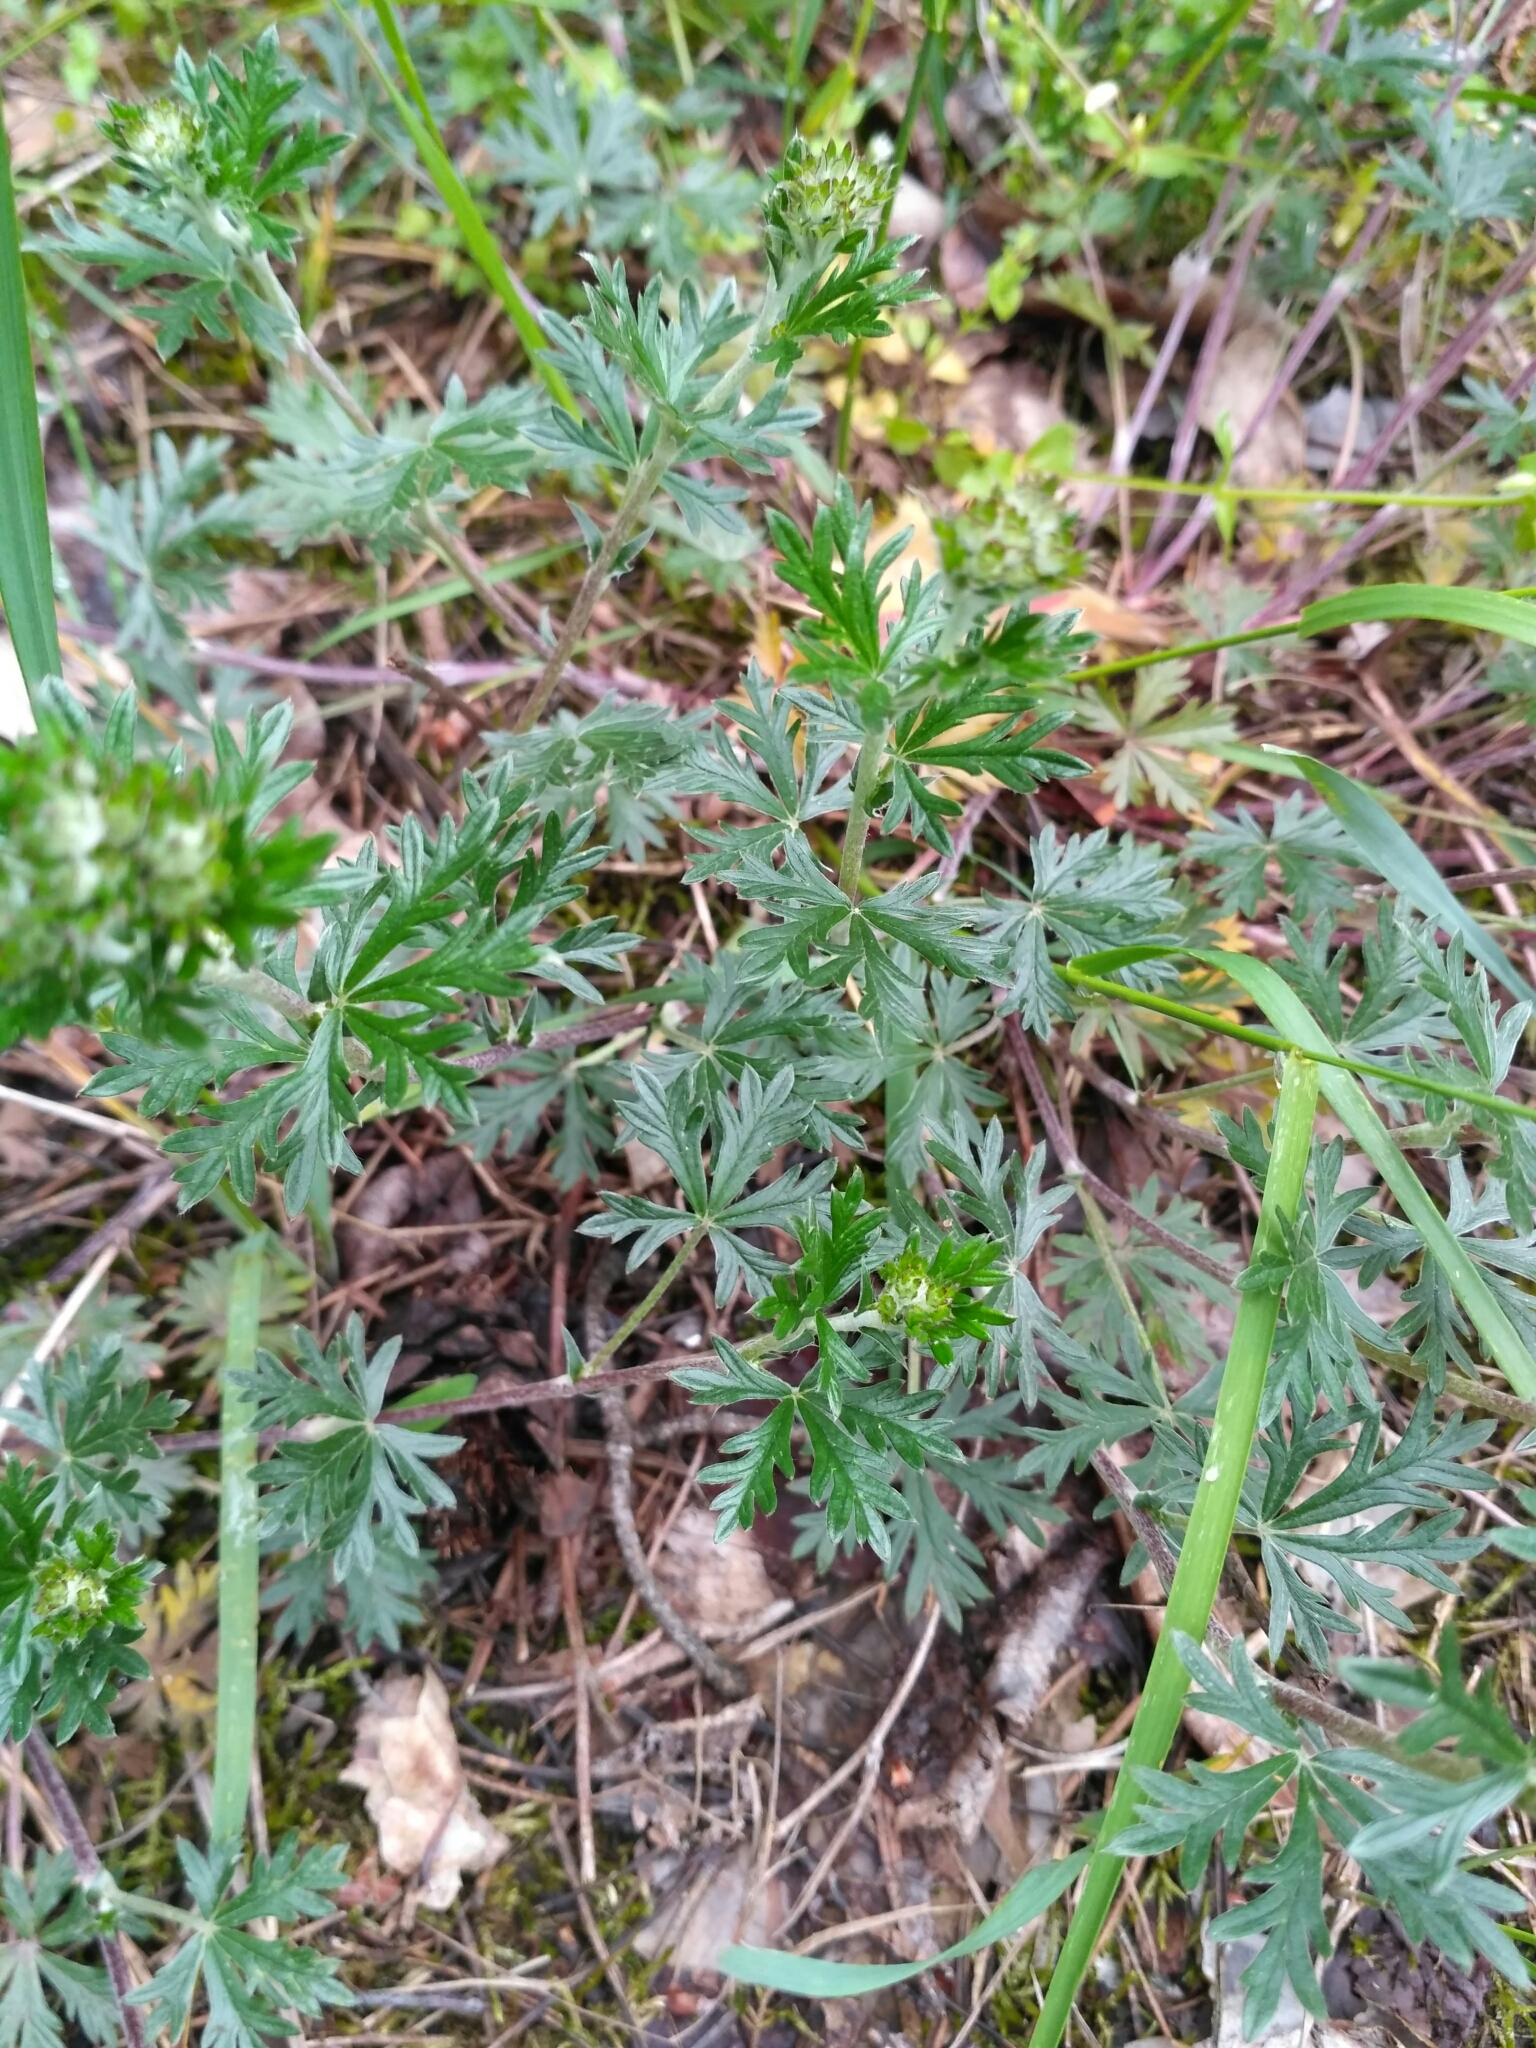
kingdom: Plantae
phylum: Tracheophyta
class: Magnoliopsida
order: Rosales
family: Rosaceae
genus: Potentilla
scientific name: Potentilla argentea
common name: Hoary cinquefoil
